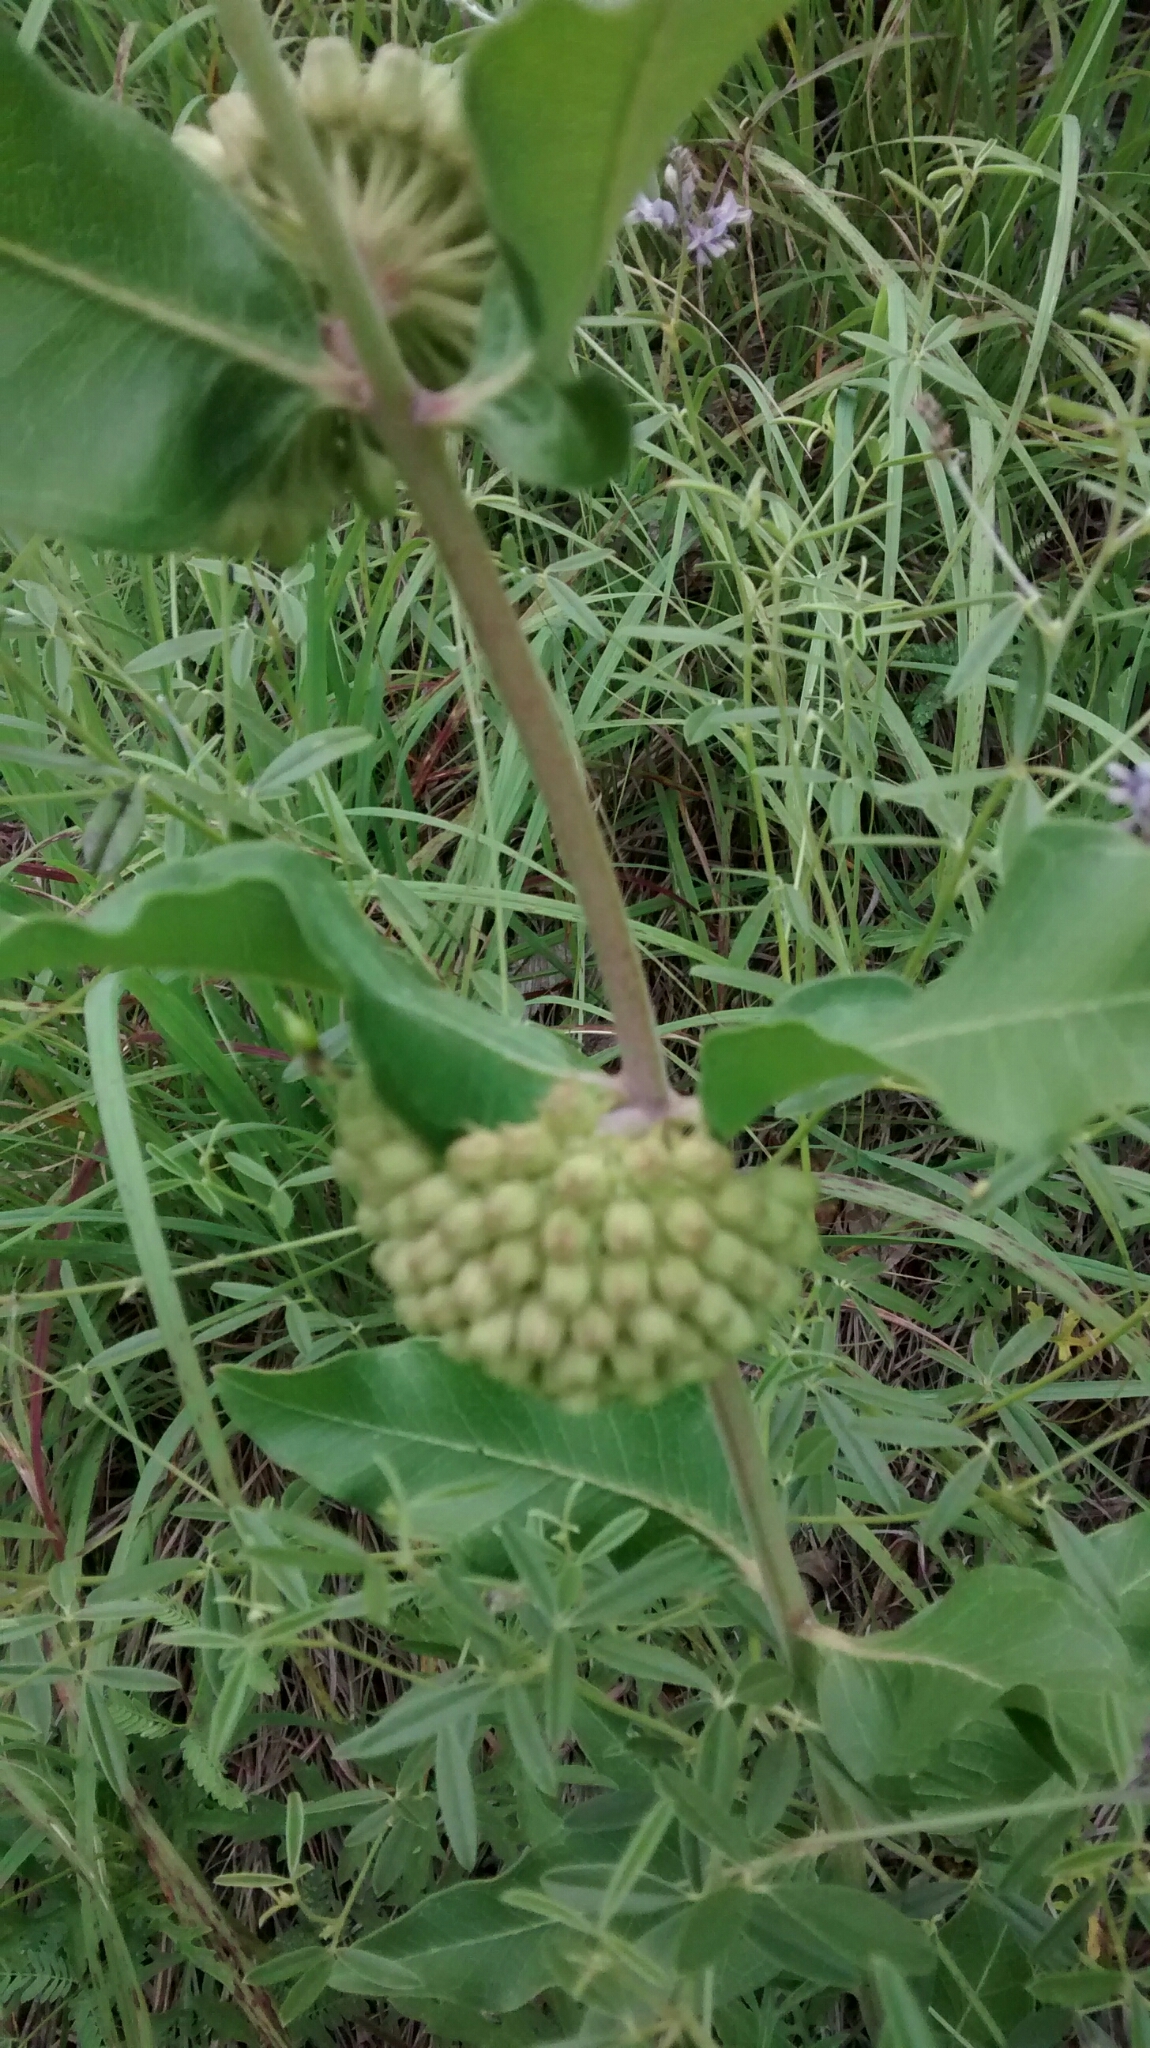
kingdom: Plantae
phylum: Tracheophyta
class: Magnoliopsida
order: Gentianales
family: Apocynaceae
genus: Asclepias
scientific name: Asclepias viridiflora
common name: Green comet milkweed
